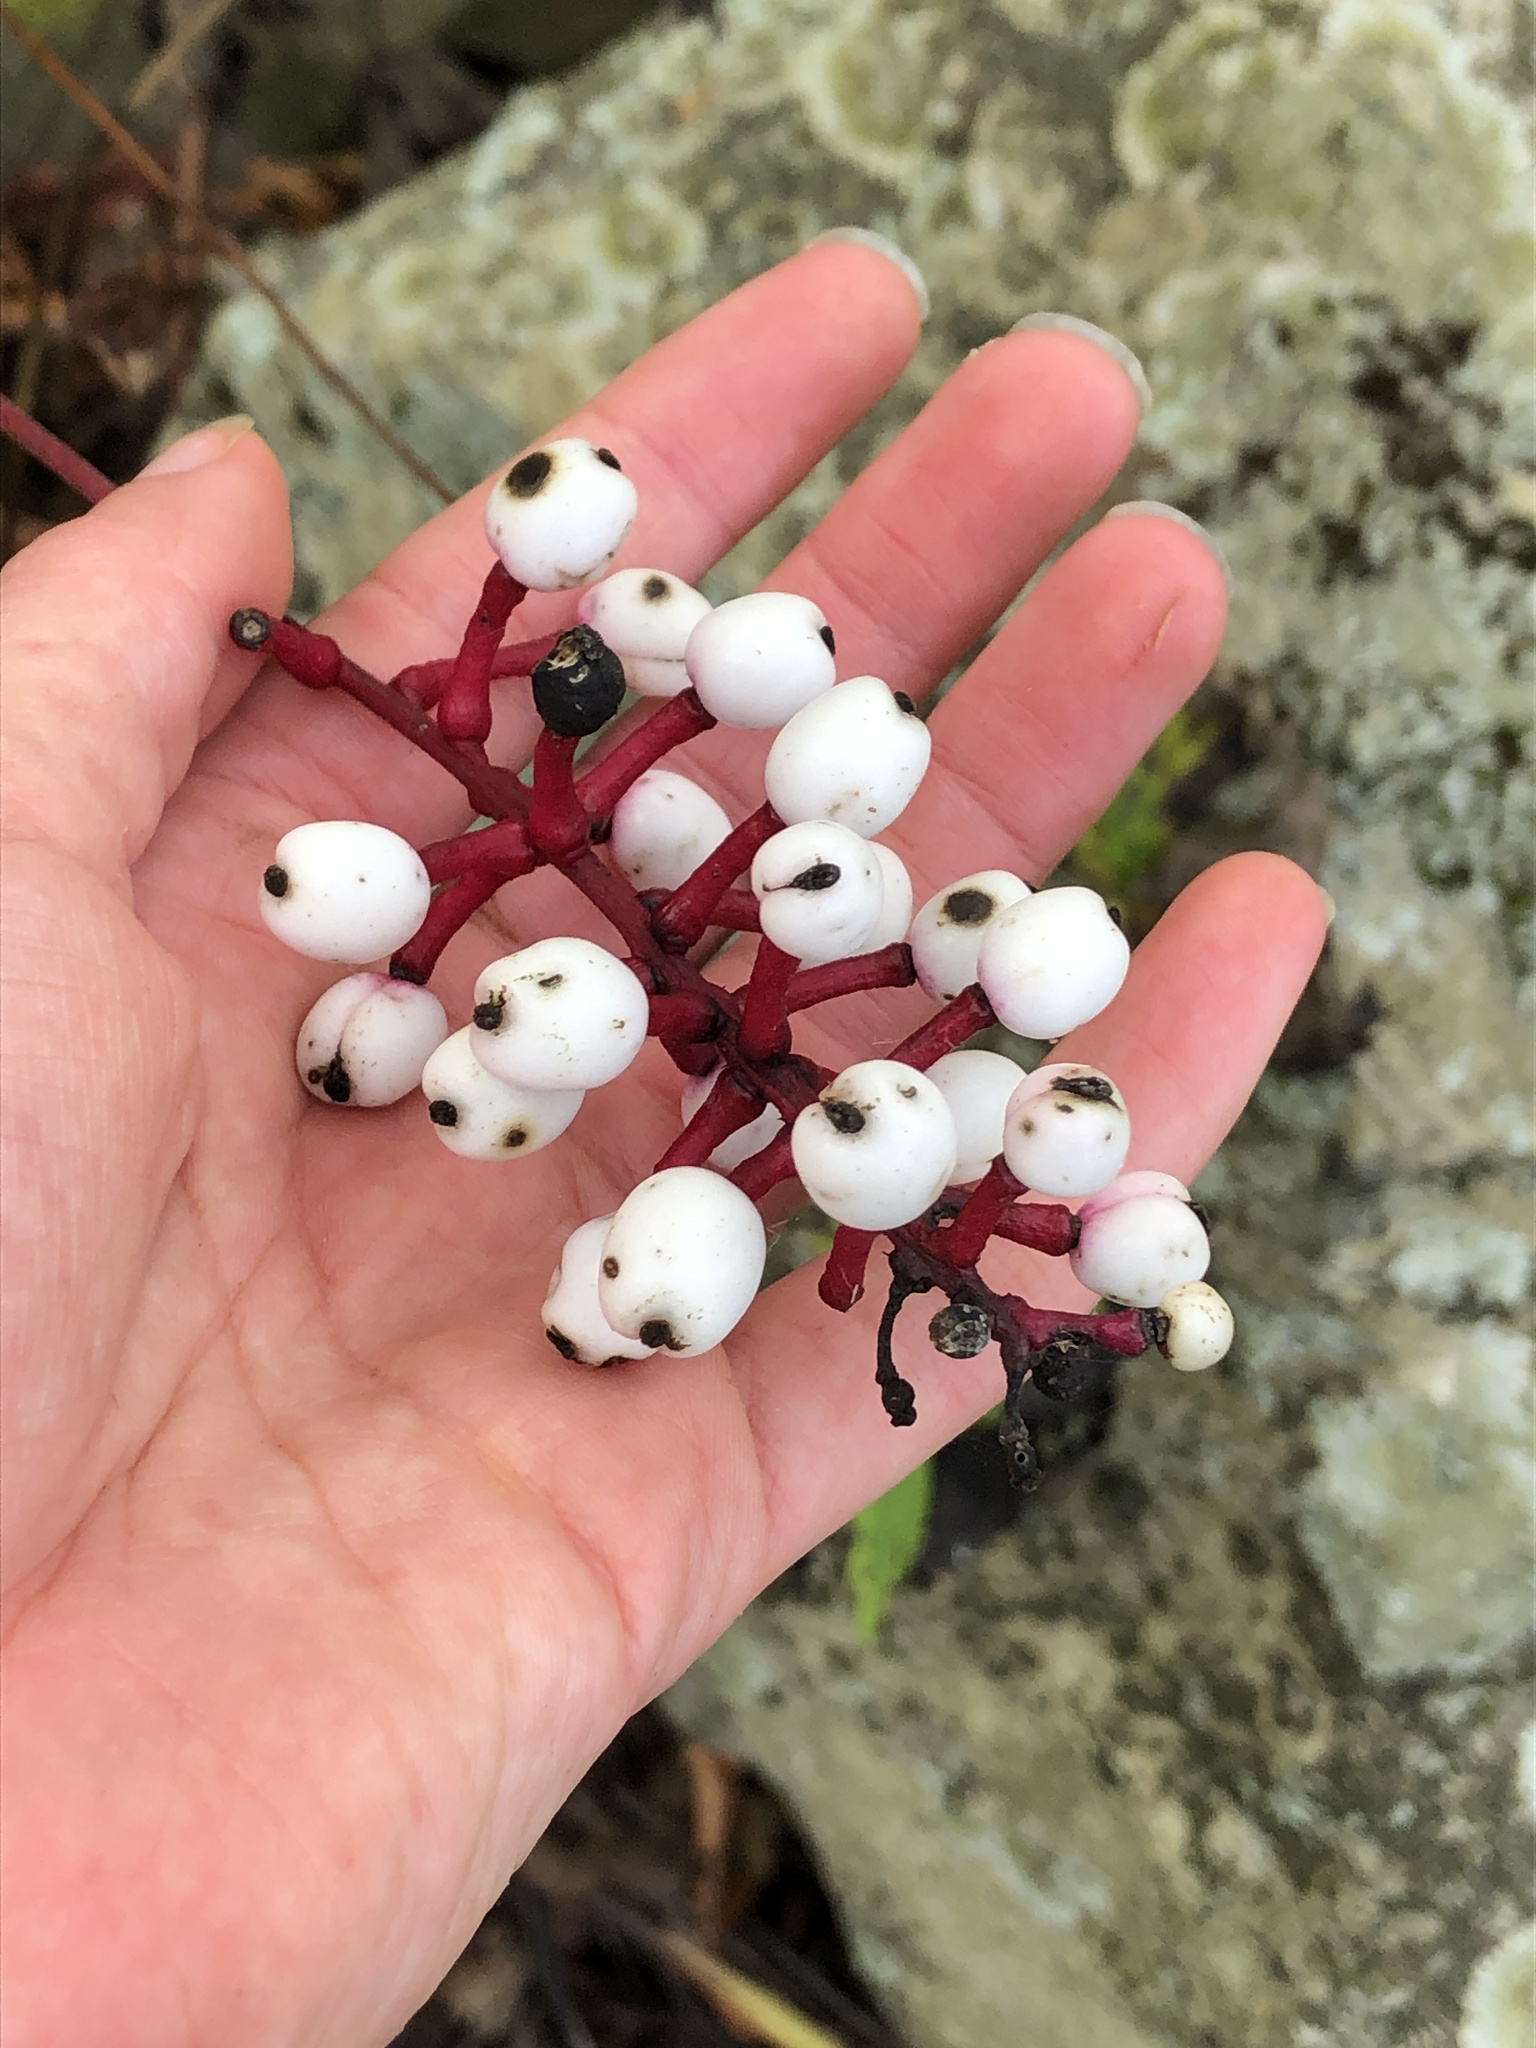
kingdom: Plantae
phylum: Tracheophyta
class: Magnoliopsida
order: Ranunculales
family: Ranunculaceae
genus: Actaea
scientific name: Actaea pachypoda
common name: Doll's-eyes
